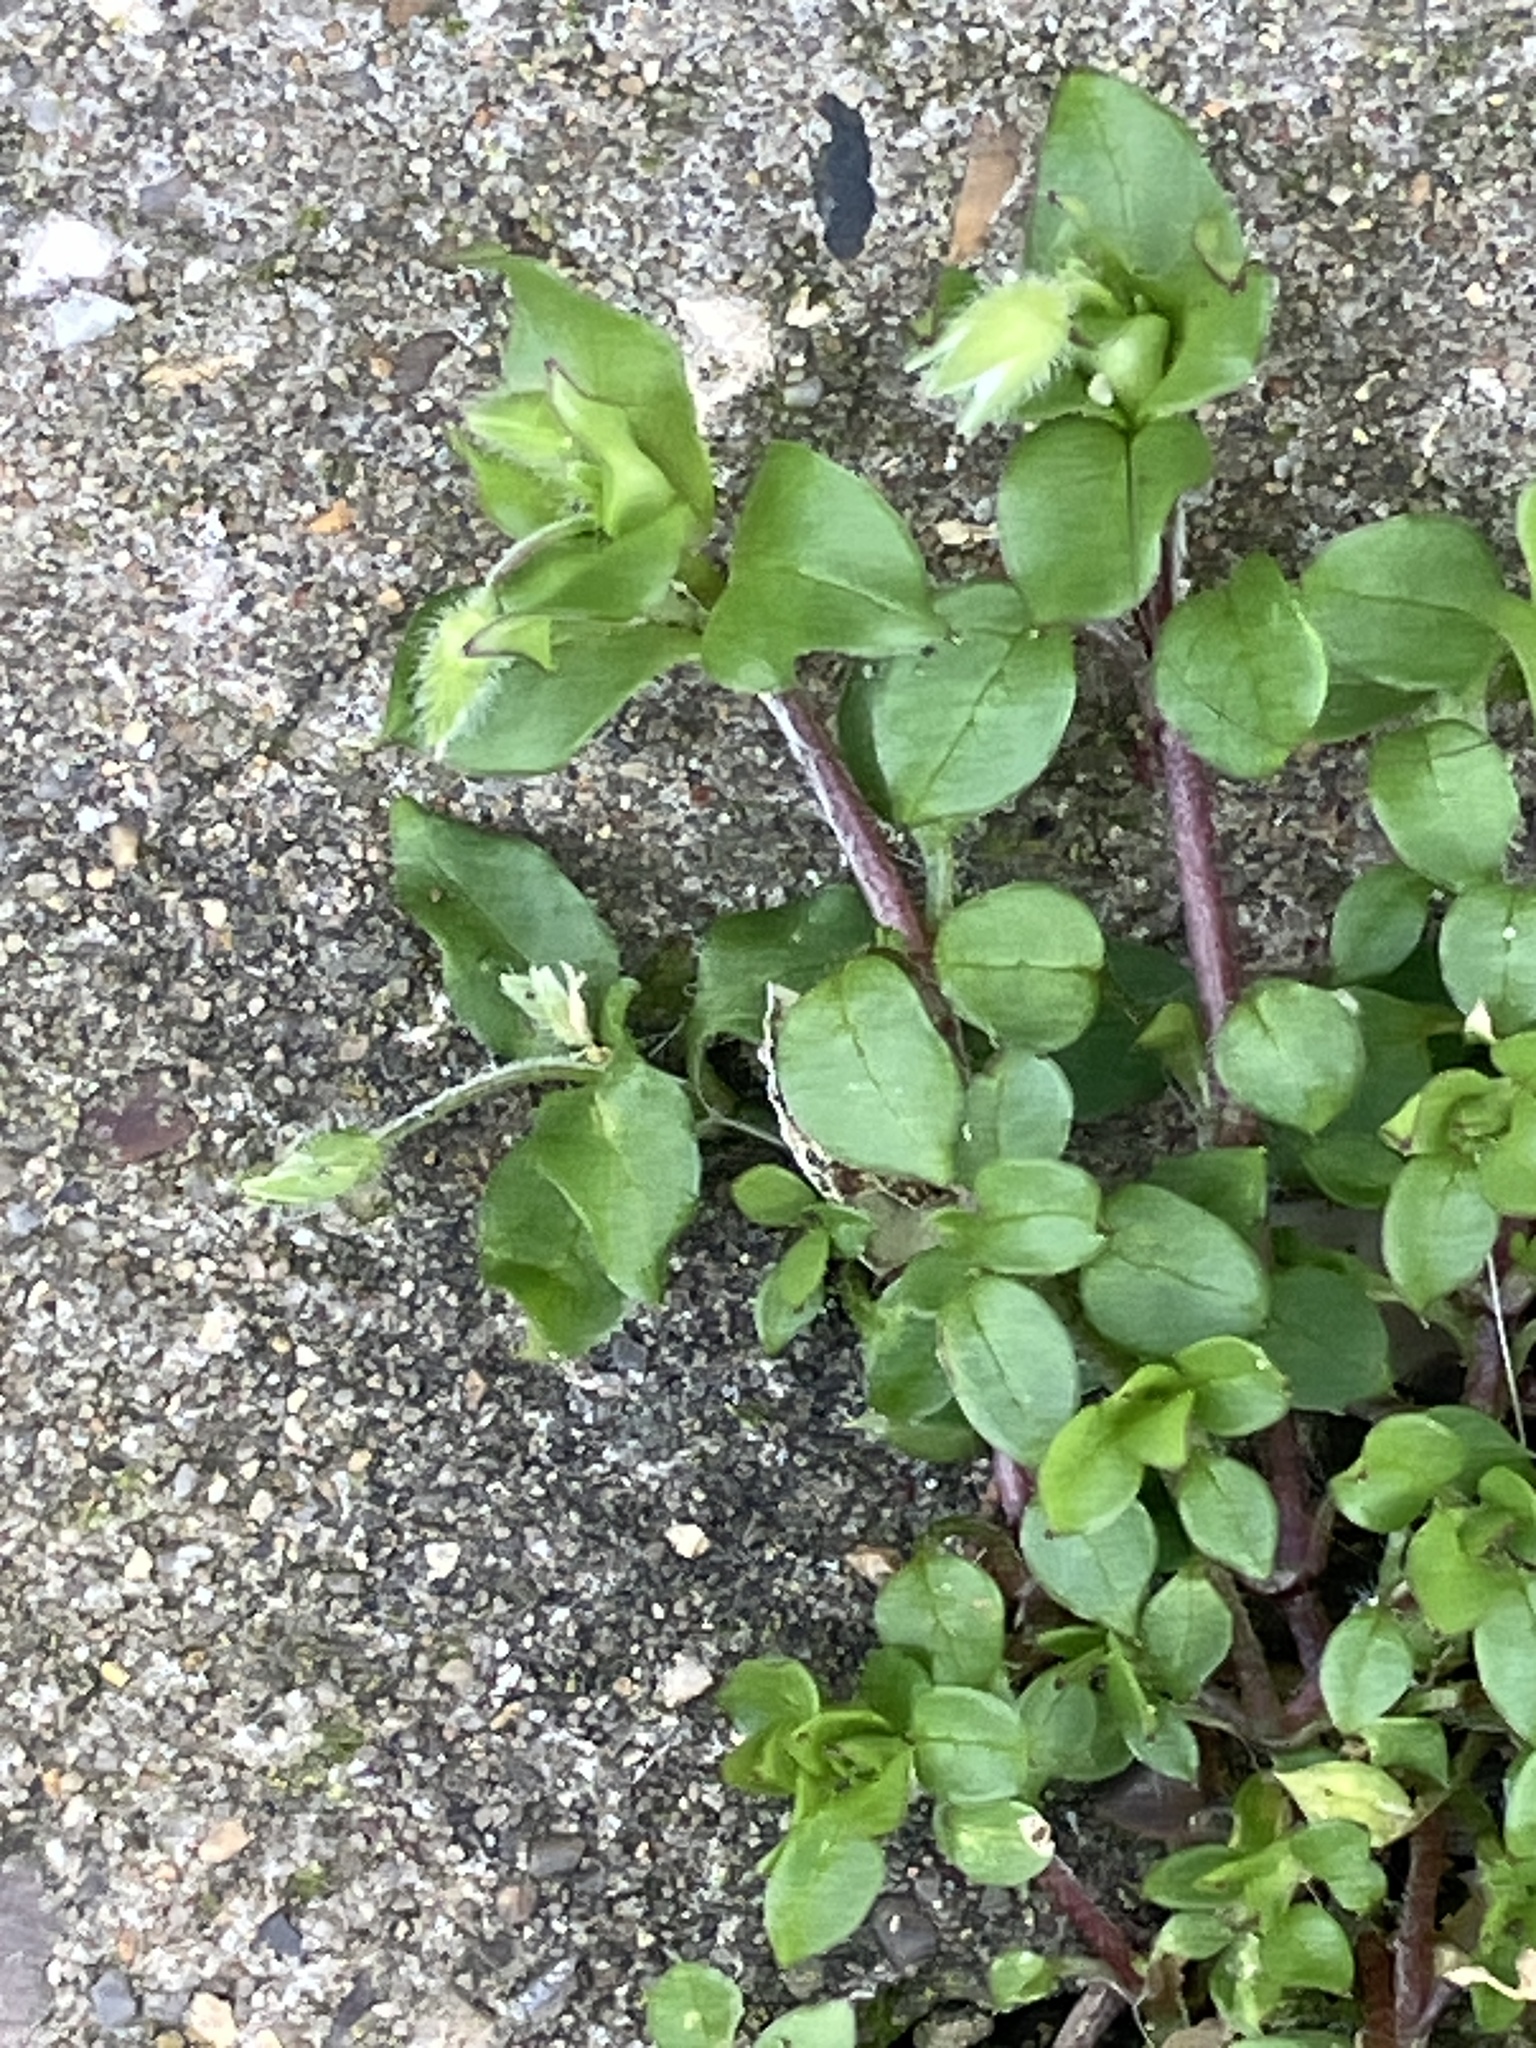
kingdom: Plantae
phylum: Tracheophyta
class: Magnoliopsida
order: Caryophyllales
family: Caryophyllaceae
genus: Stellaria
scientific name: Stellaria media
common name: Common chickweed
